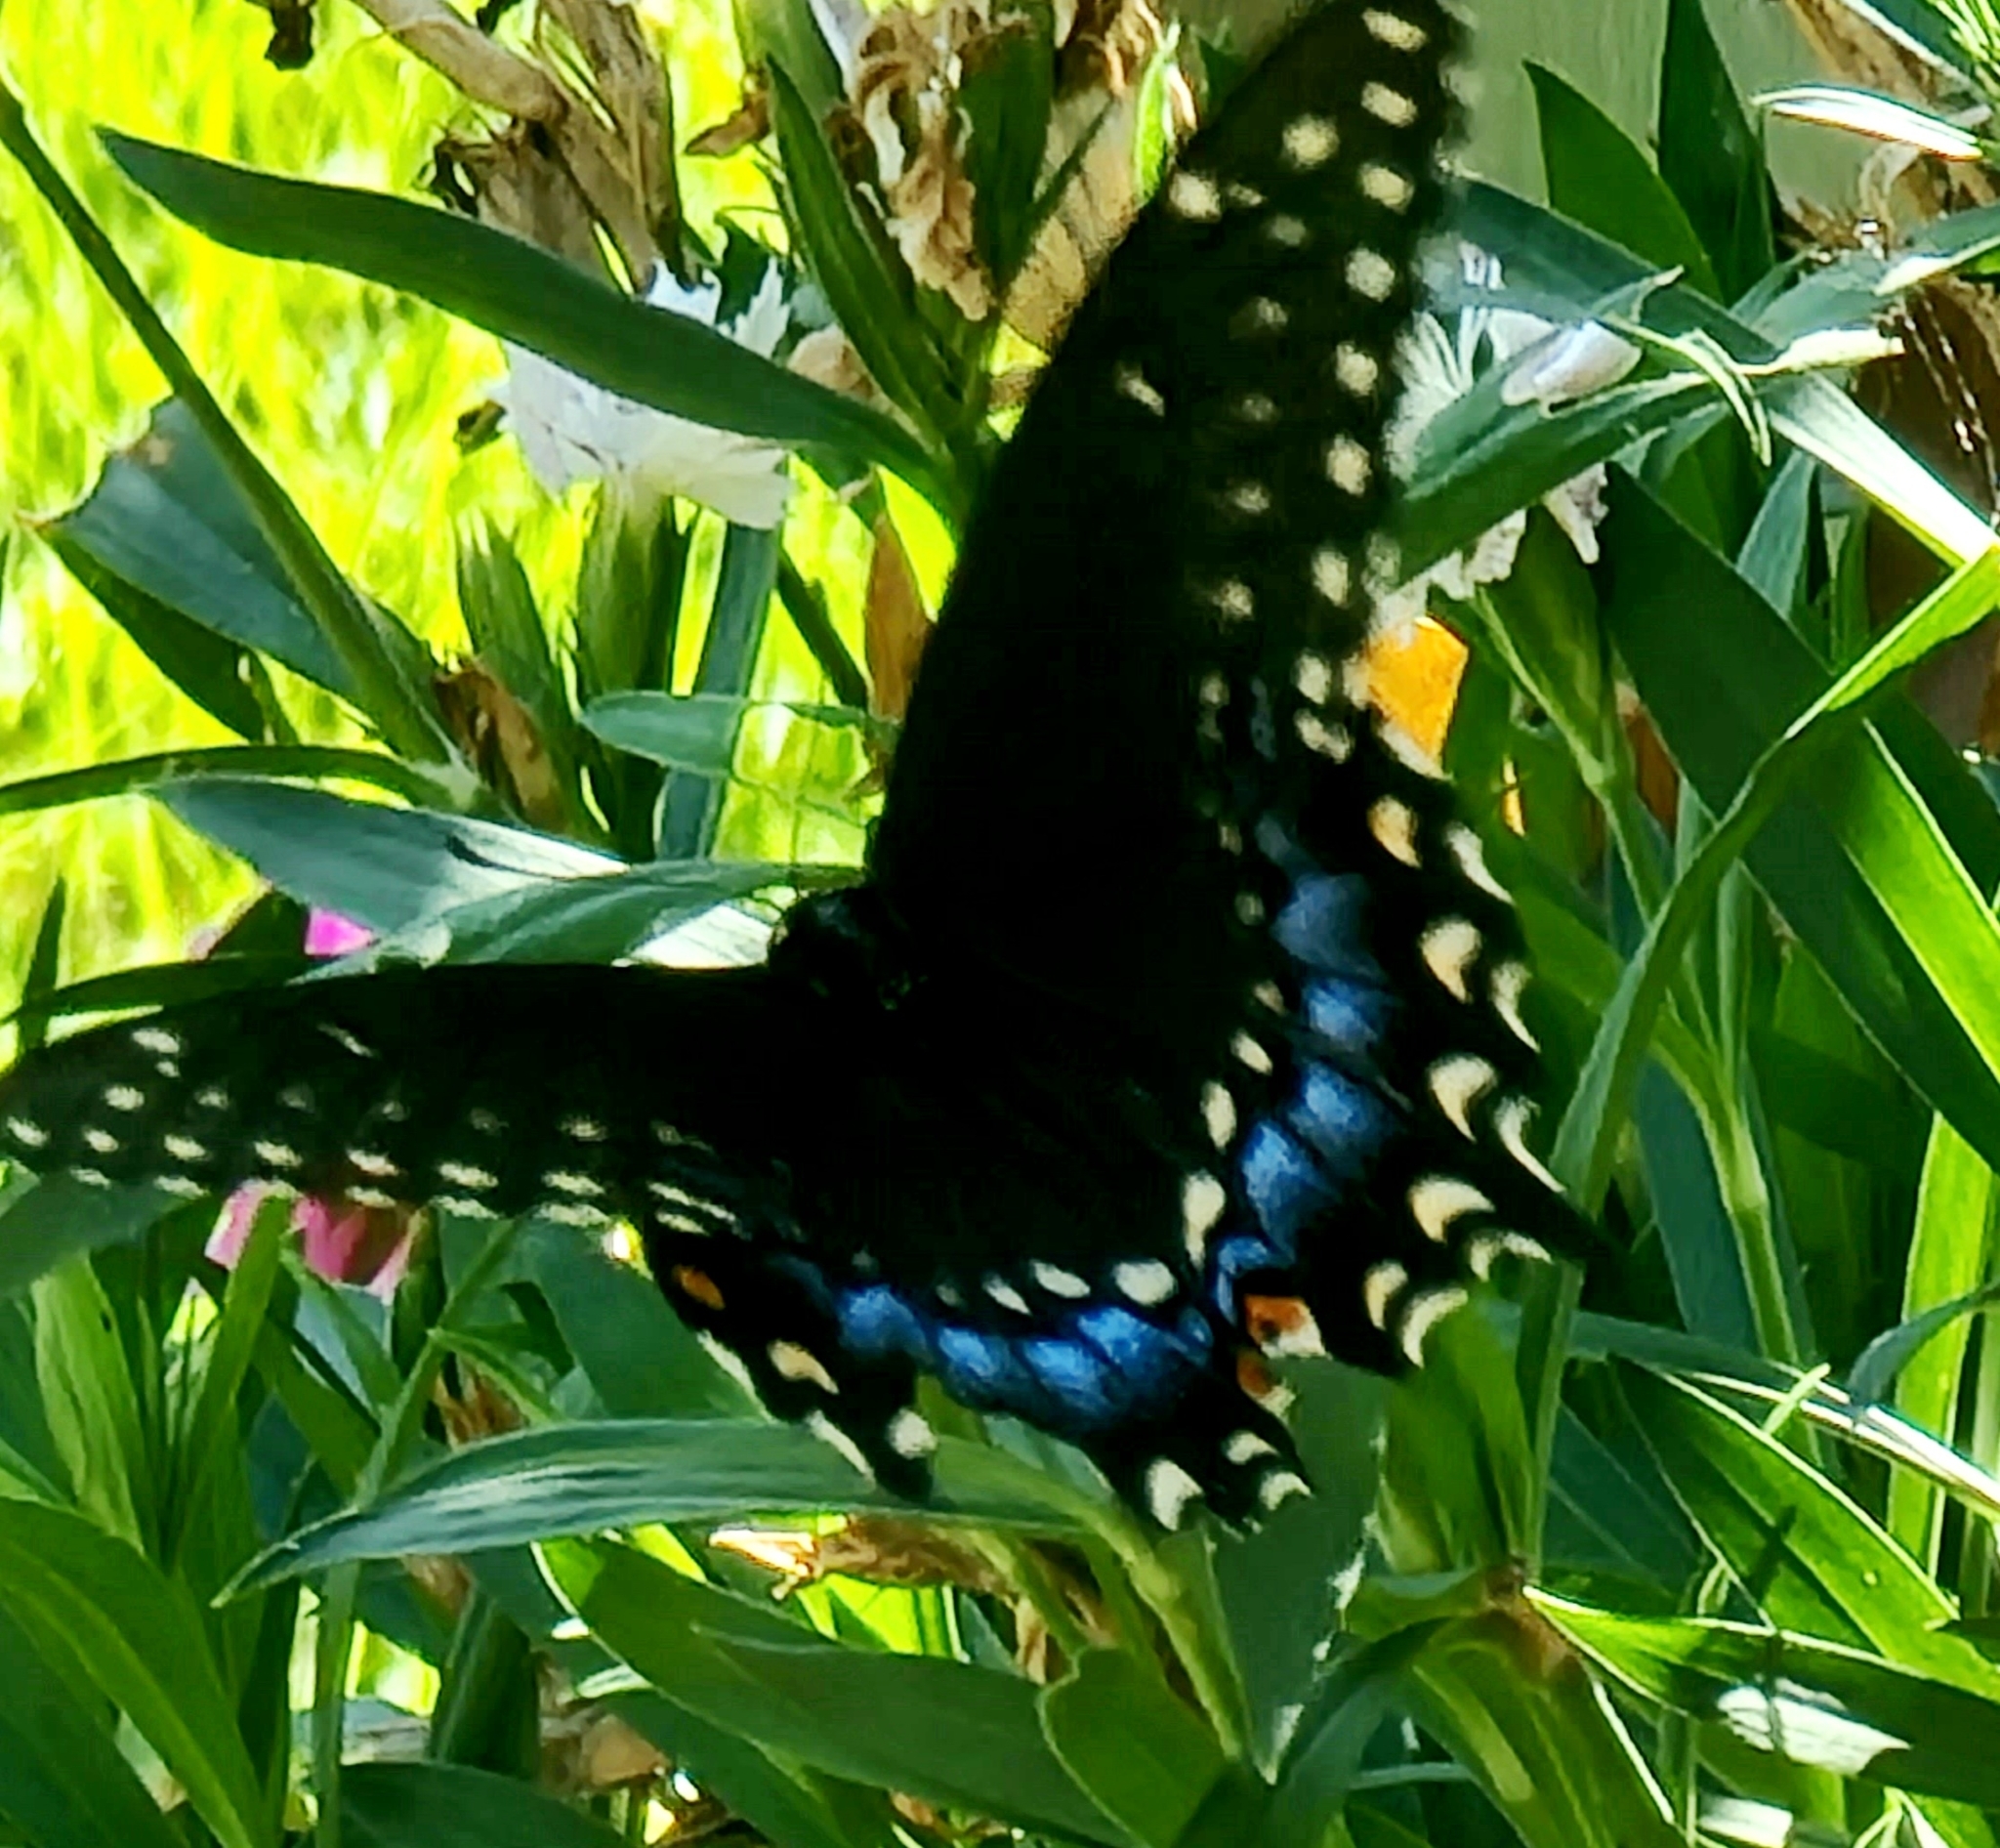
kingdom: Animalia
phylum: Arthropoda
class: Insecta
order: Lepidoptera
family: Papilionidae
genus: Papilio
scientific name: Papilio polyxenes
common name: Black swallowtail
